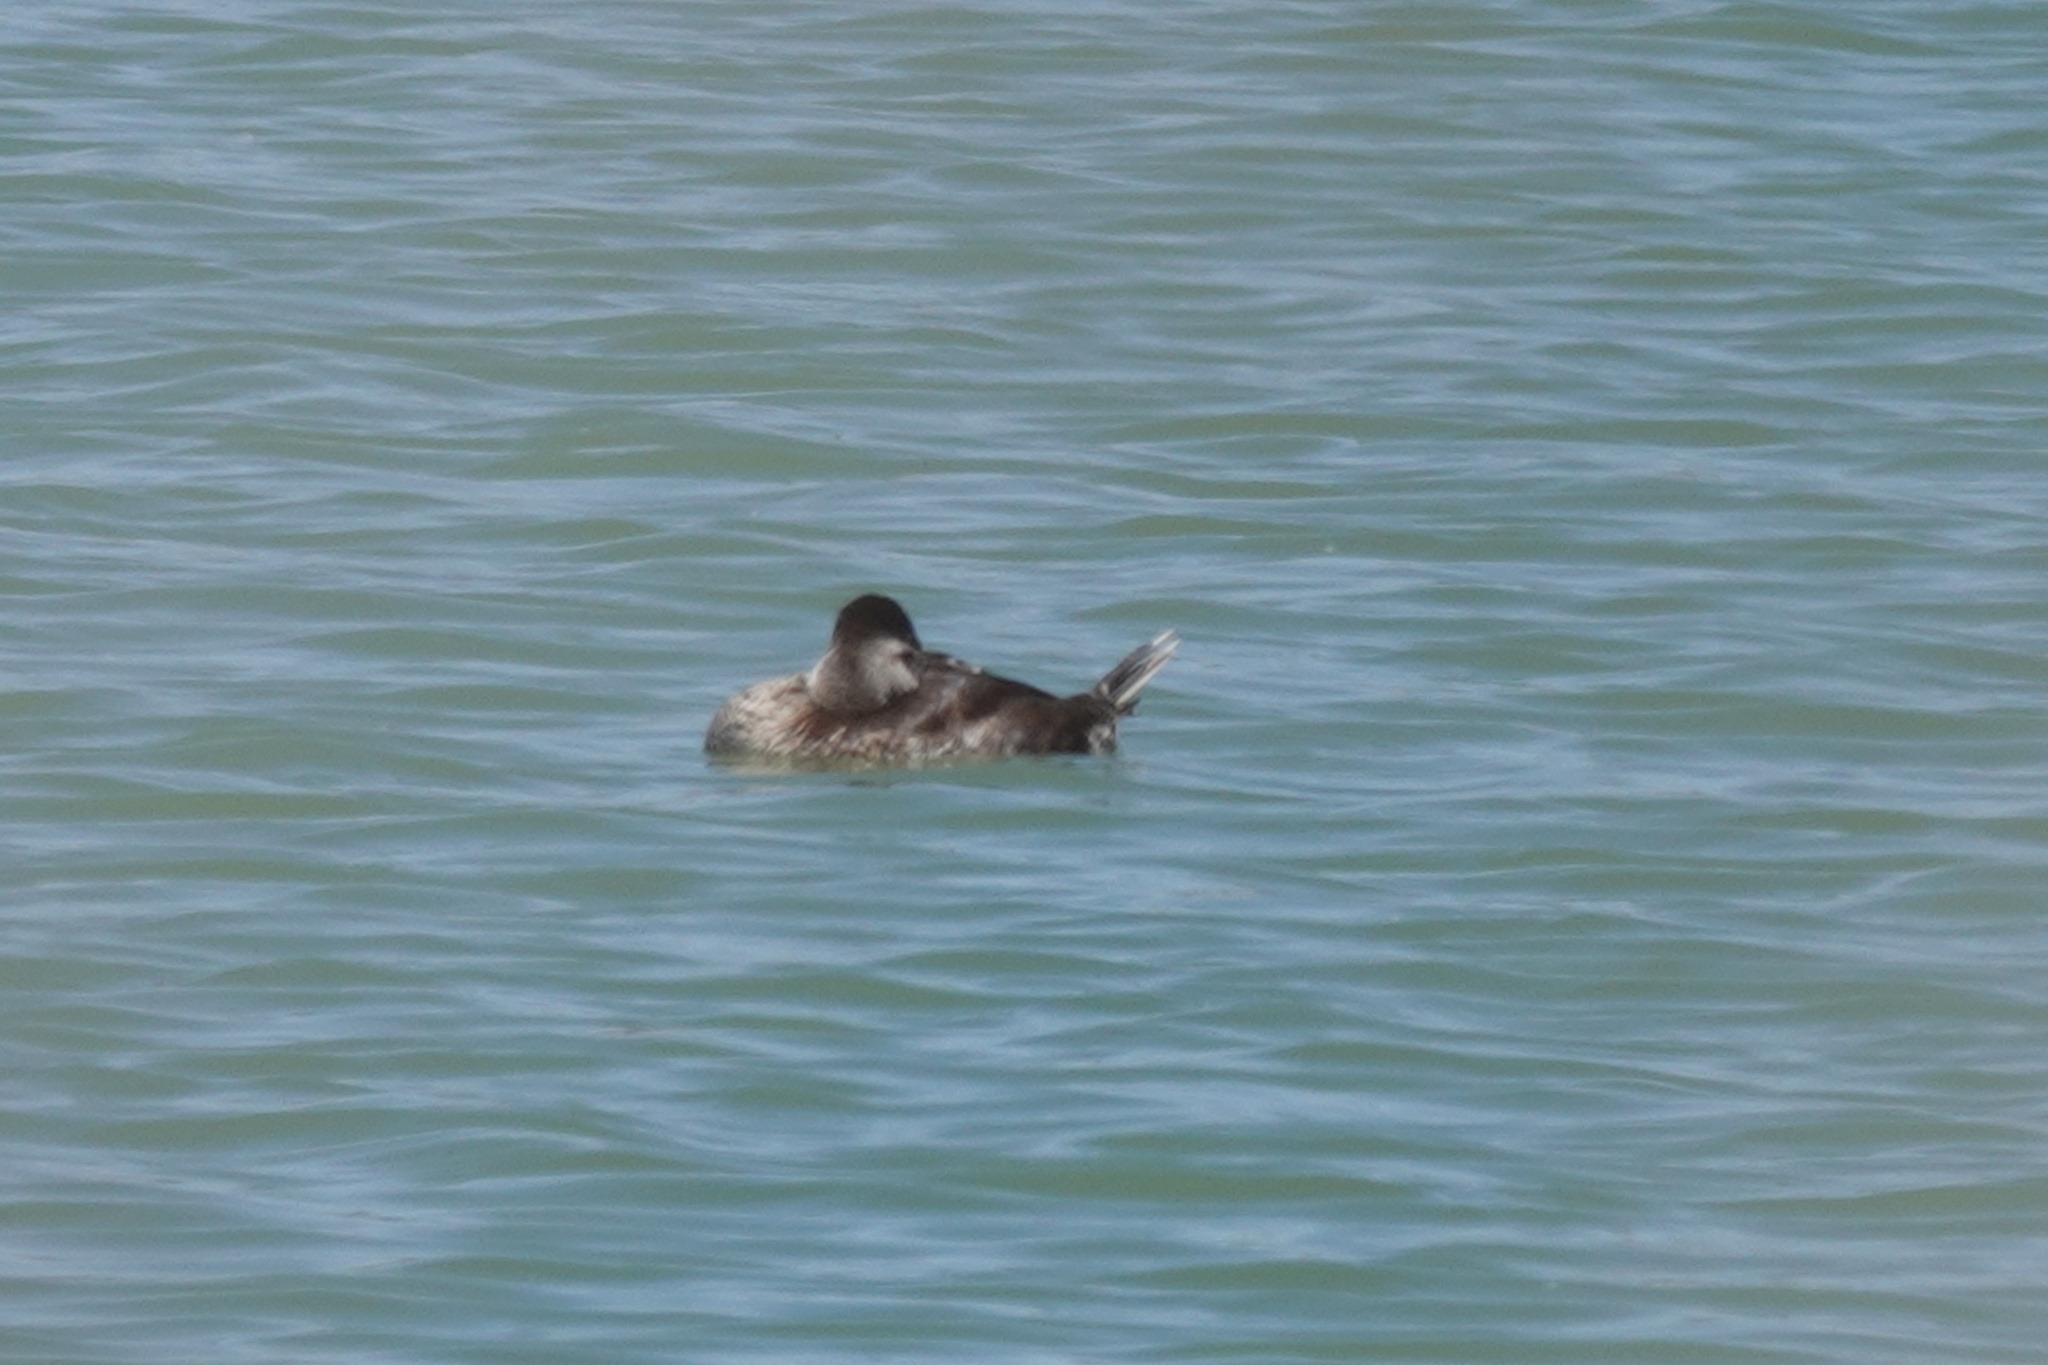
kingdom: Animalia
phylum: Chordata
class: Aves
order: Anseriformes
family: Anatidae
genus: Oxyura
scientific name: Oxyura jamaicensis
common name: Ruddy duck
